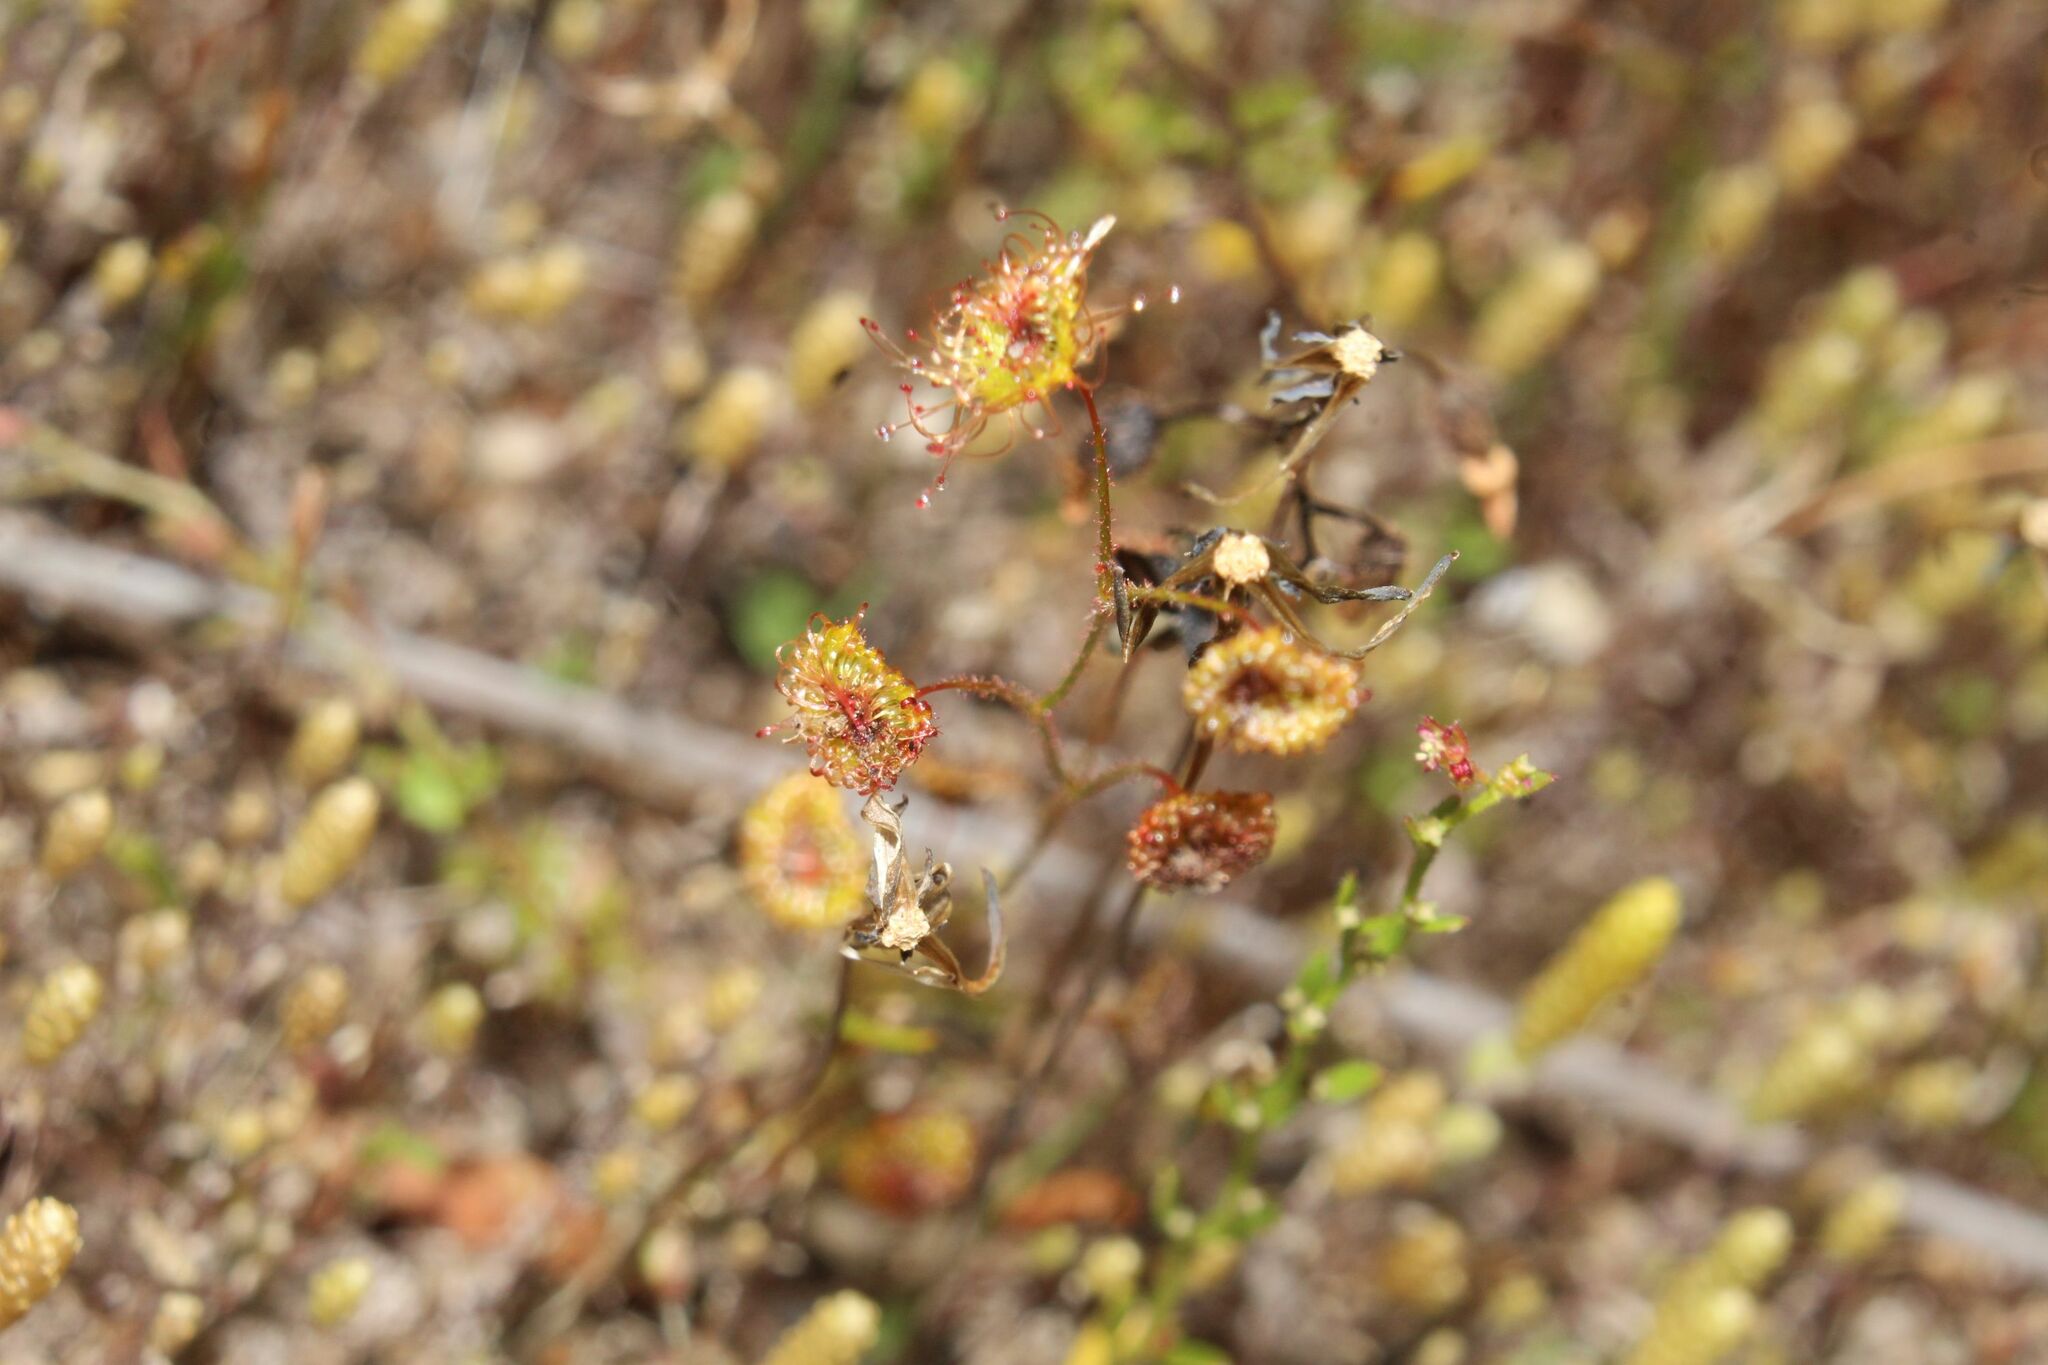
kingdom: Plantae
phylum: Tracheophyta
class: Magnoliopsida
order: Caryophyllales
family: Droseraceae
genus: Drosera
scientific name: Drosera andersoniana
